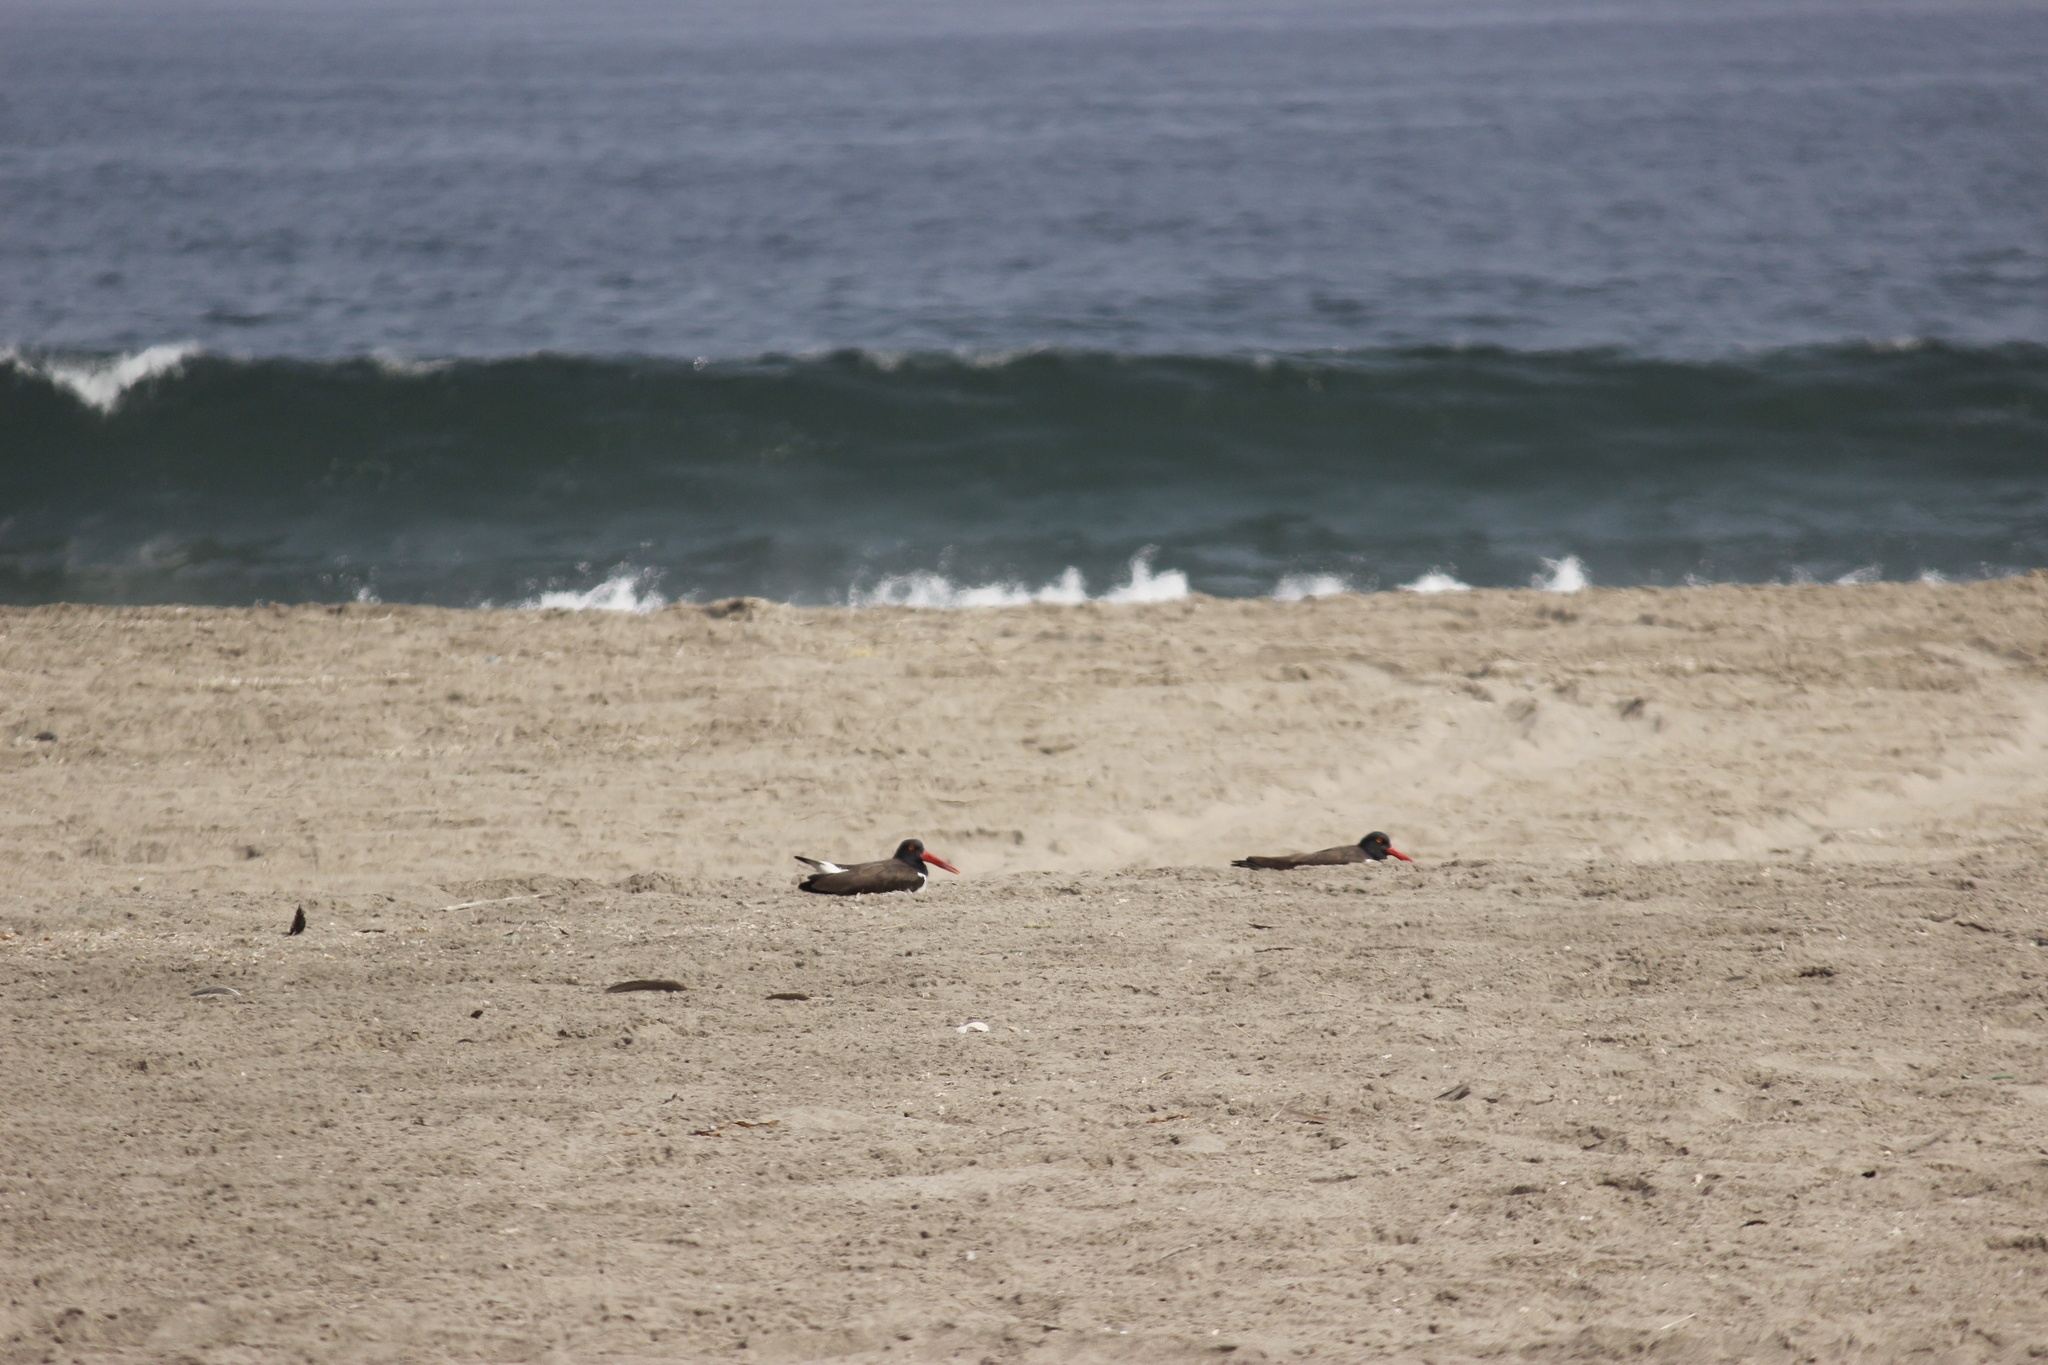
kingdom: Animalia
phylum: Chordata
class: Aves
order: Charadriiformes
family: Haematopodidae
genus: Haematopus
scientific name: Haematopus palliatus
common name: American oystercatcher
